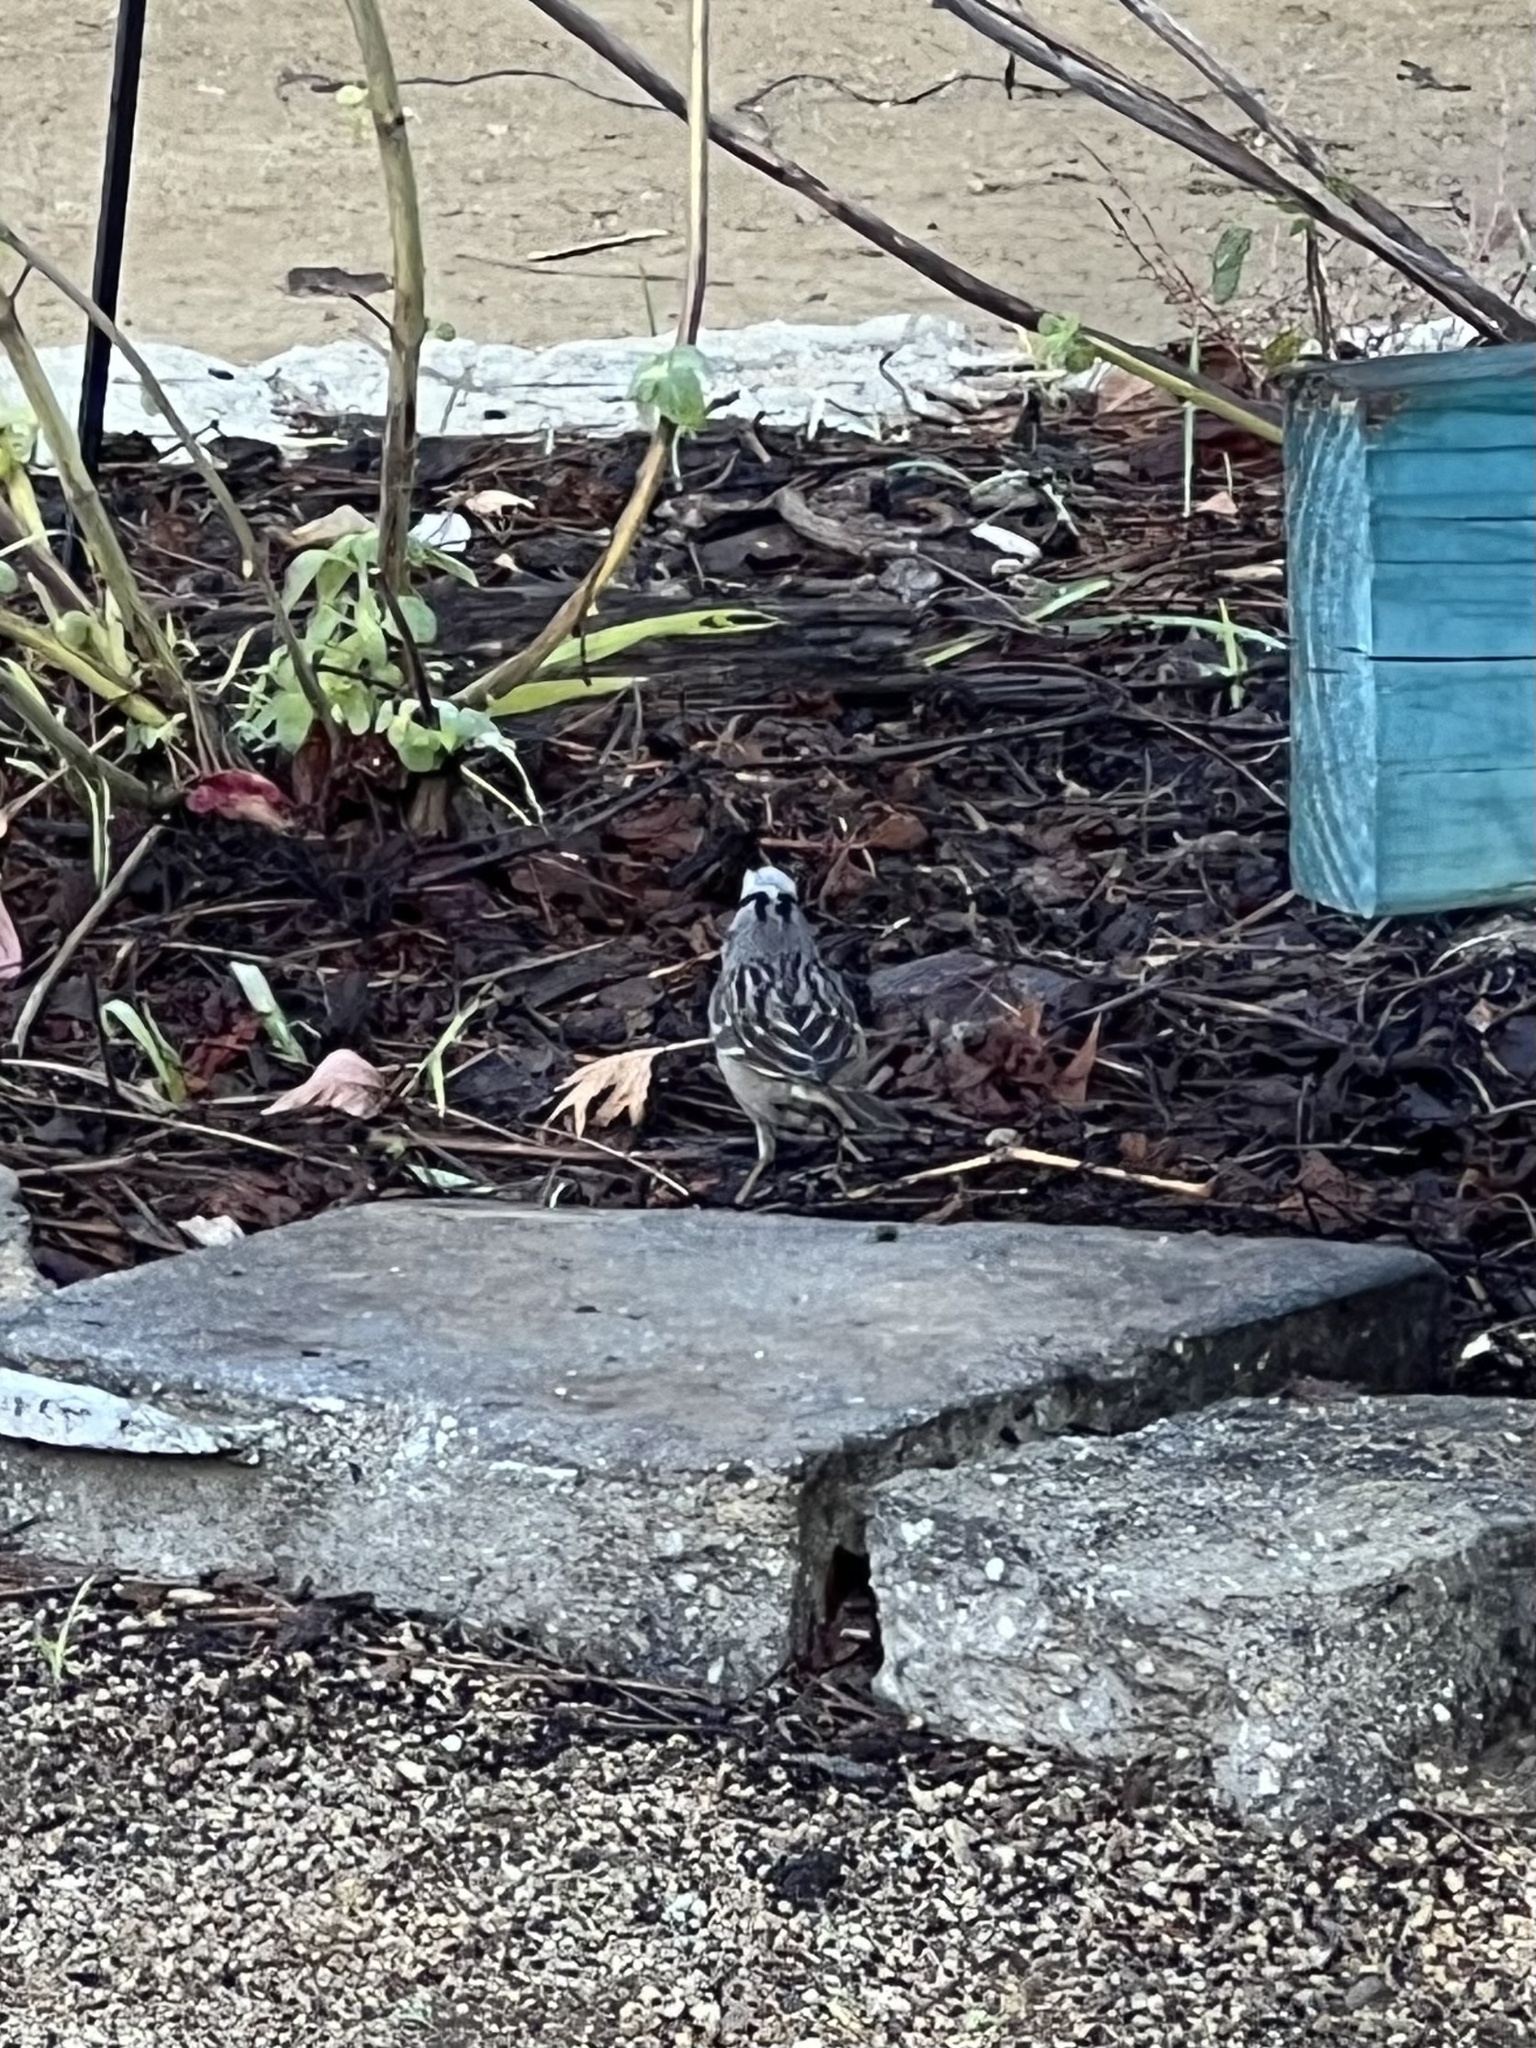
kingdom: Animalia
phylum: Chordata
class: Aves
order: Passeriformes
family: Passerellidae
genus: Zonotrichia
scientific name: Zonotrichia leucophrys
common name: White-crowned sparrow
